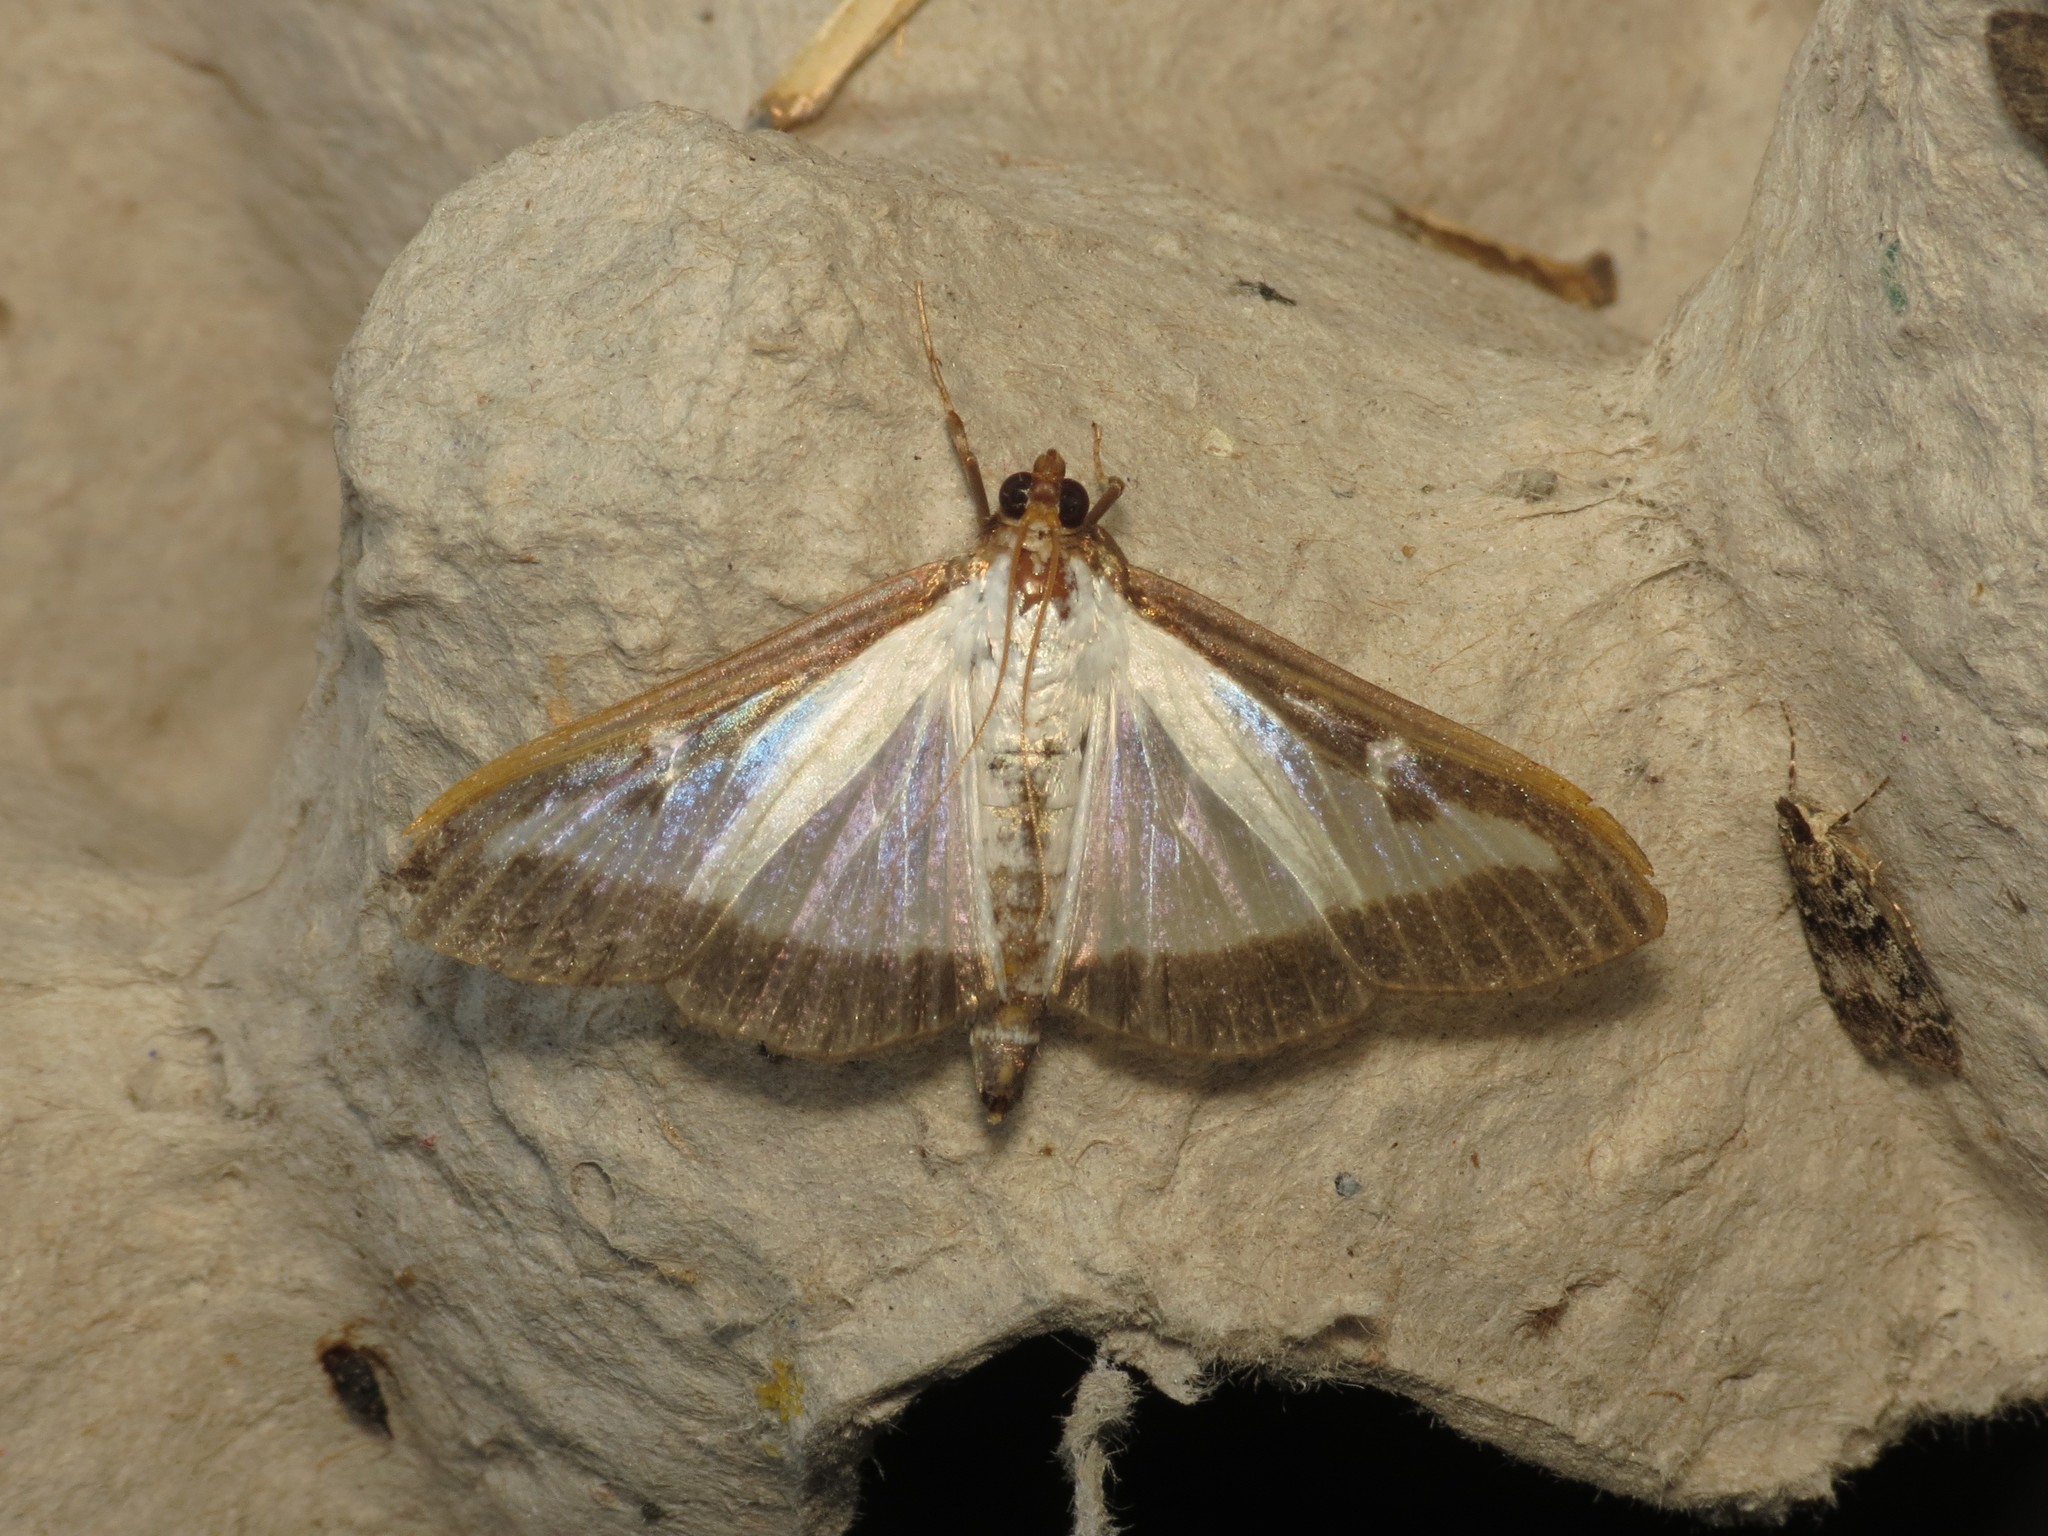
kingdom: Animalia
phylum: Arthropoda
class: Insecta
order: Lepidoptera
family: Crambidae
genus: Cydalima
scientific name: Cydalima perspectalis
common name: Box tree moth
